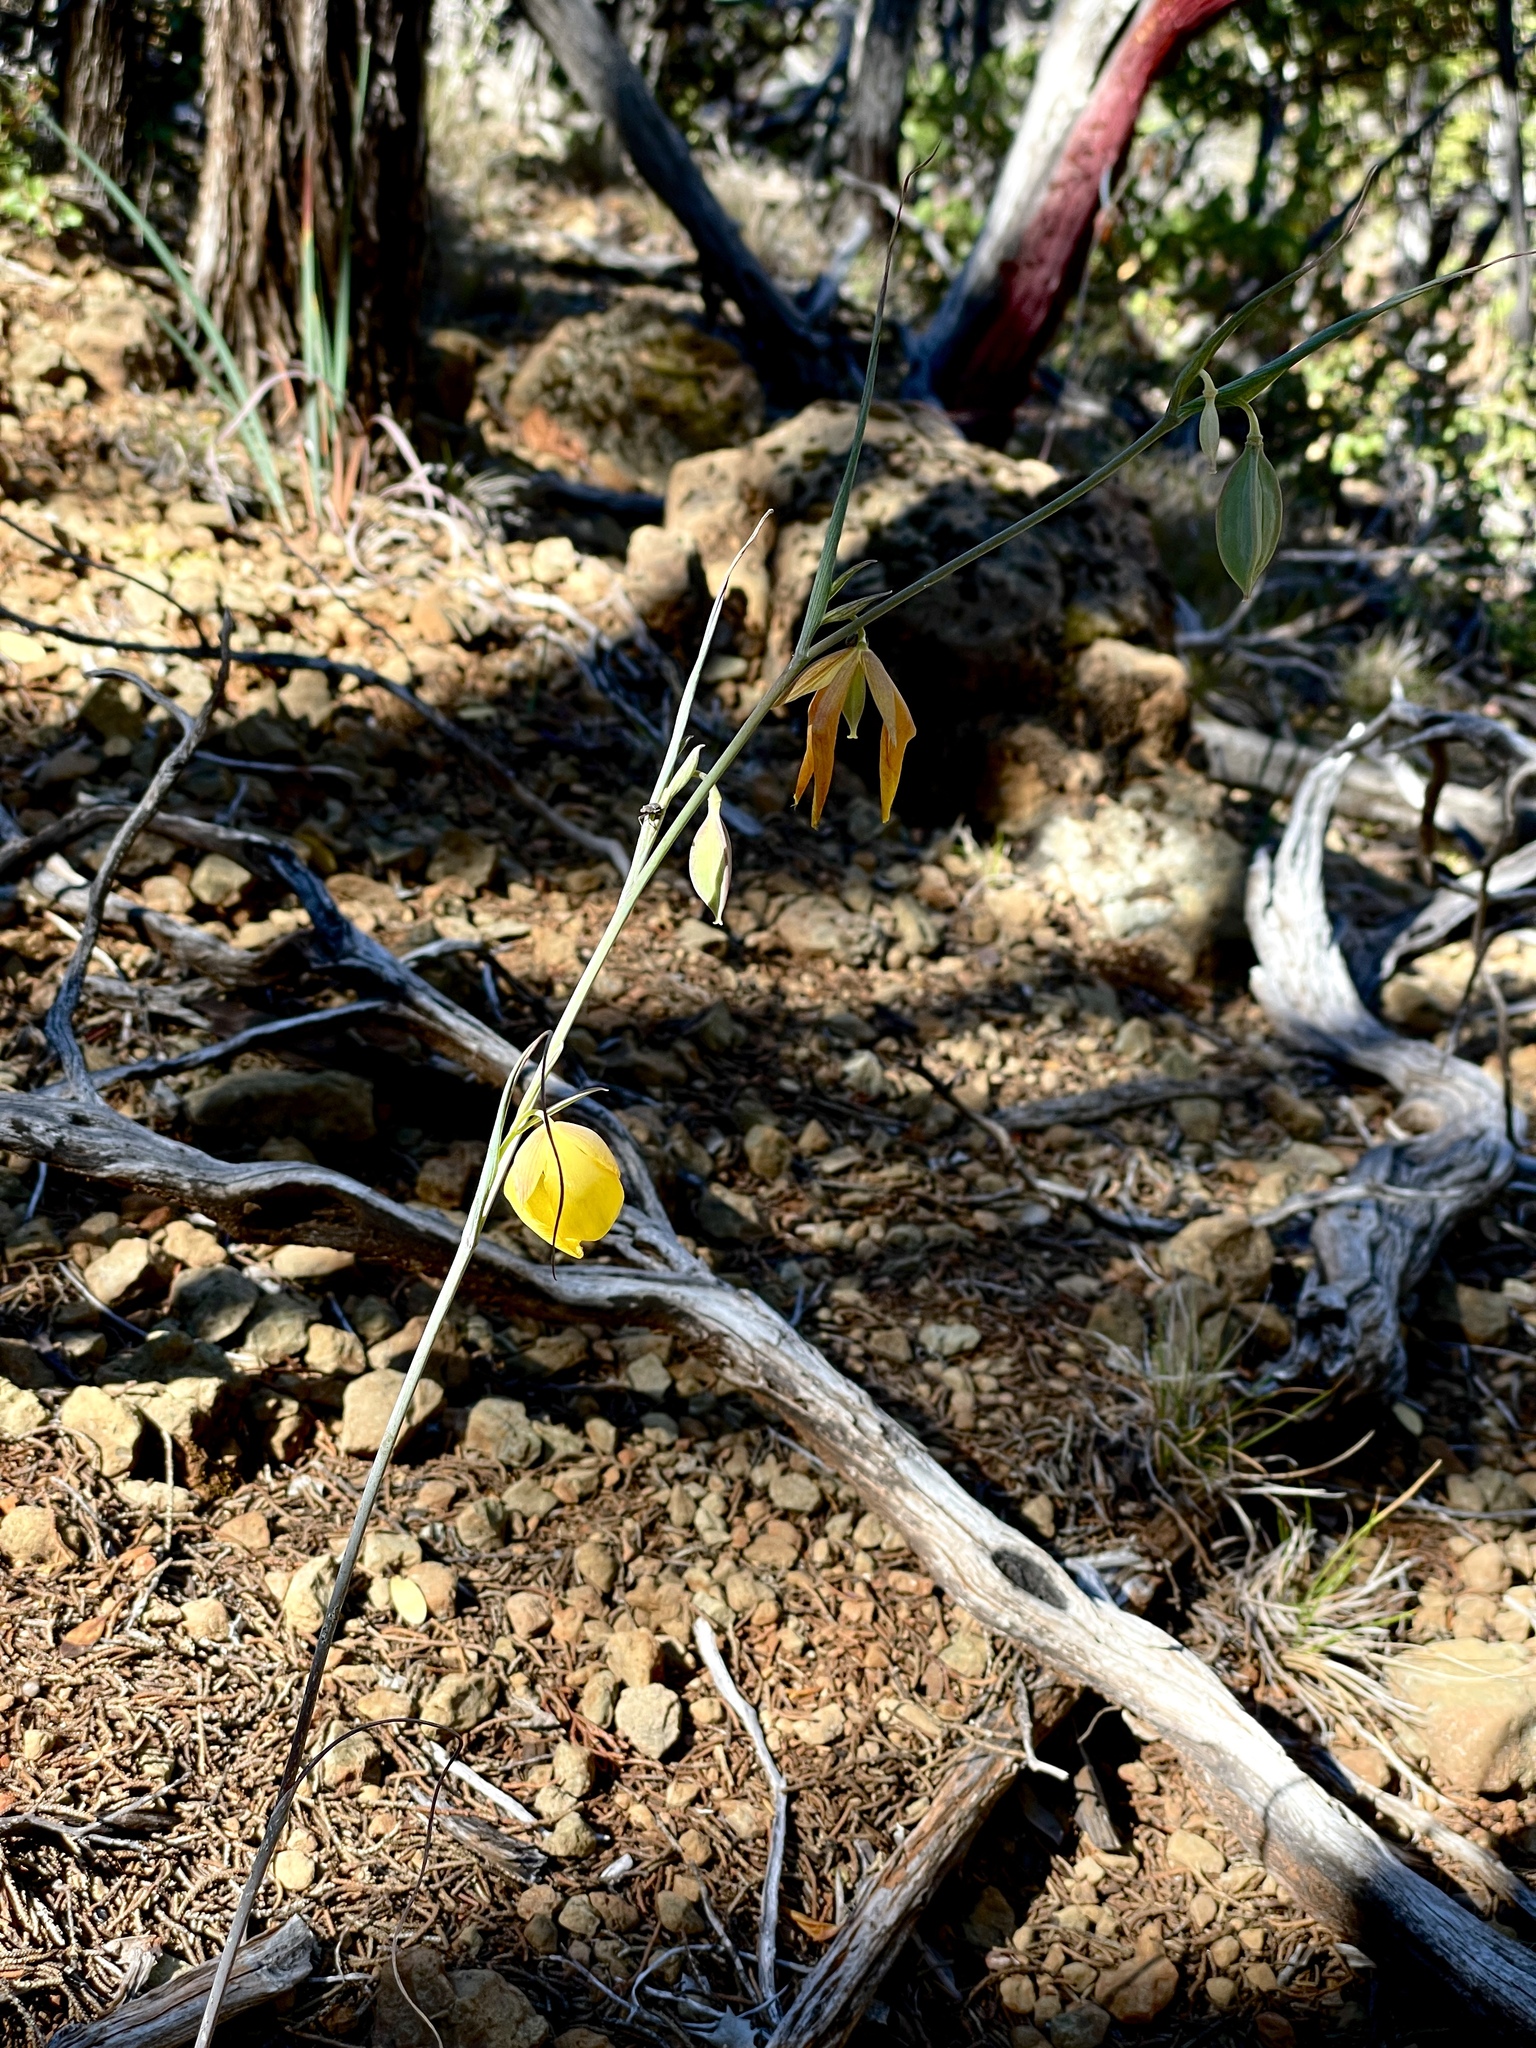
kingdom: Plantae
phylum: Tracheophyta
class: Liliopsida
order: Liliales
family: Liliaceae
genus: Calochortus
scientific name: Calochortus raichei
